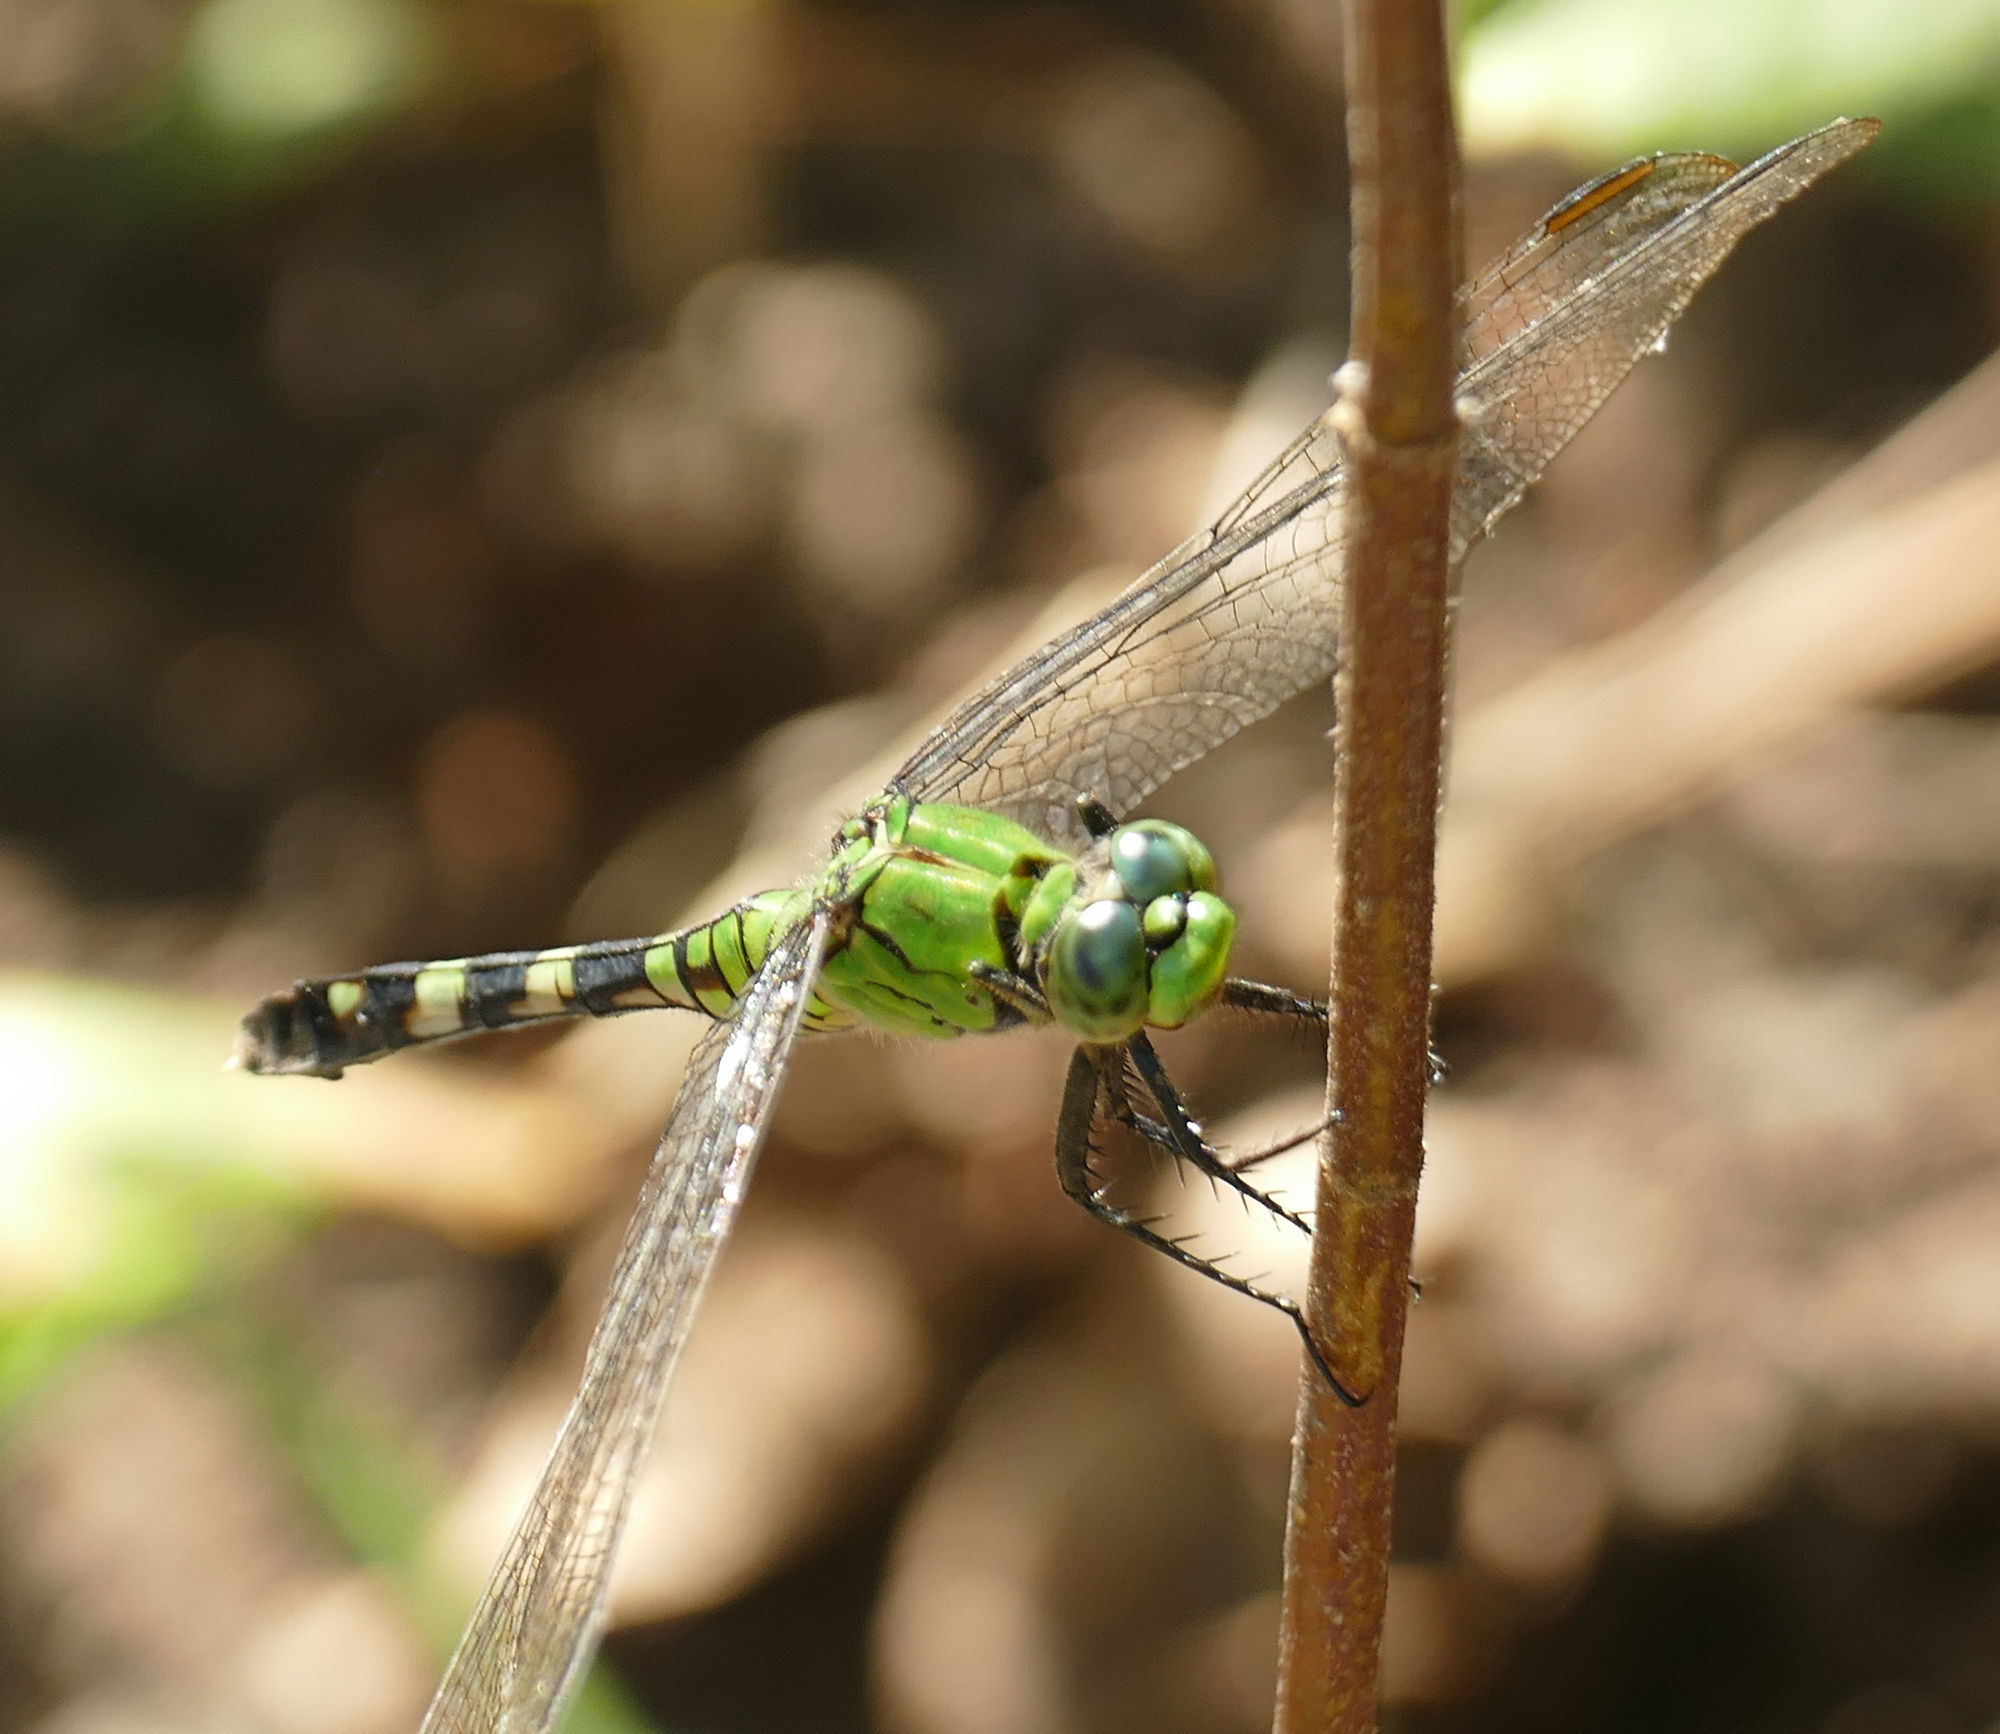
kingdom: Animalia
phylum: Arthropoda
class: Insecta
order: Odonata
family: Libellulidae
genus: Erythemis
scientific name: Erythemis simplicicollis
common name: Eastern pondhawk
